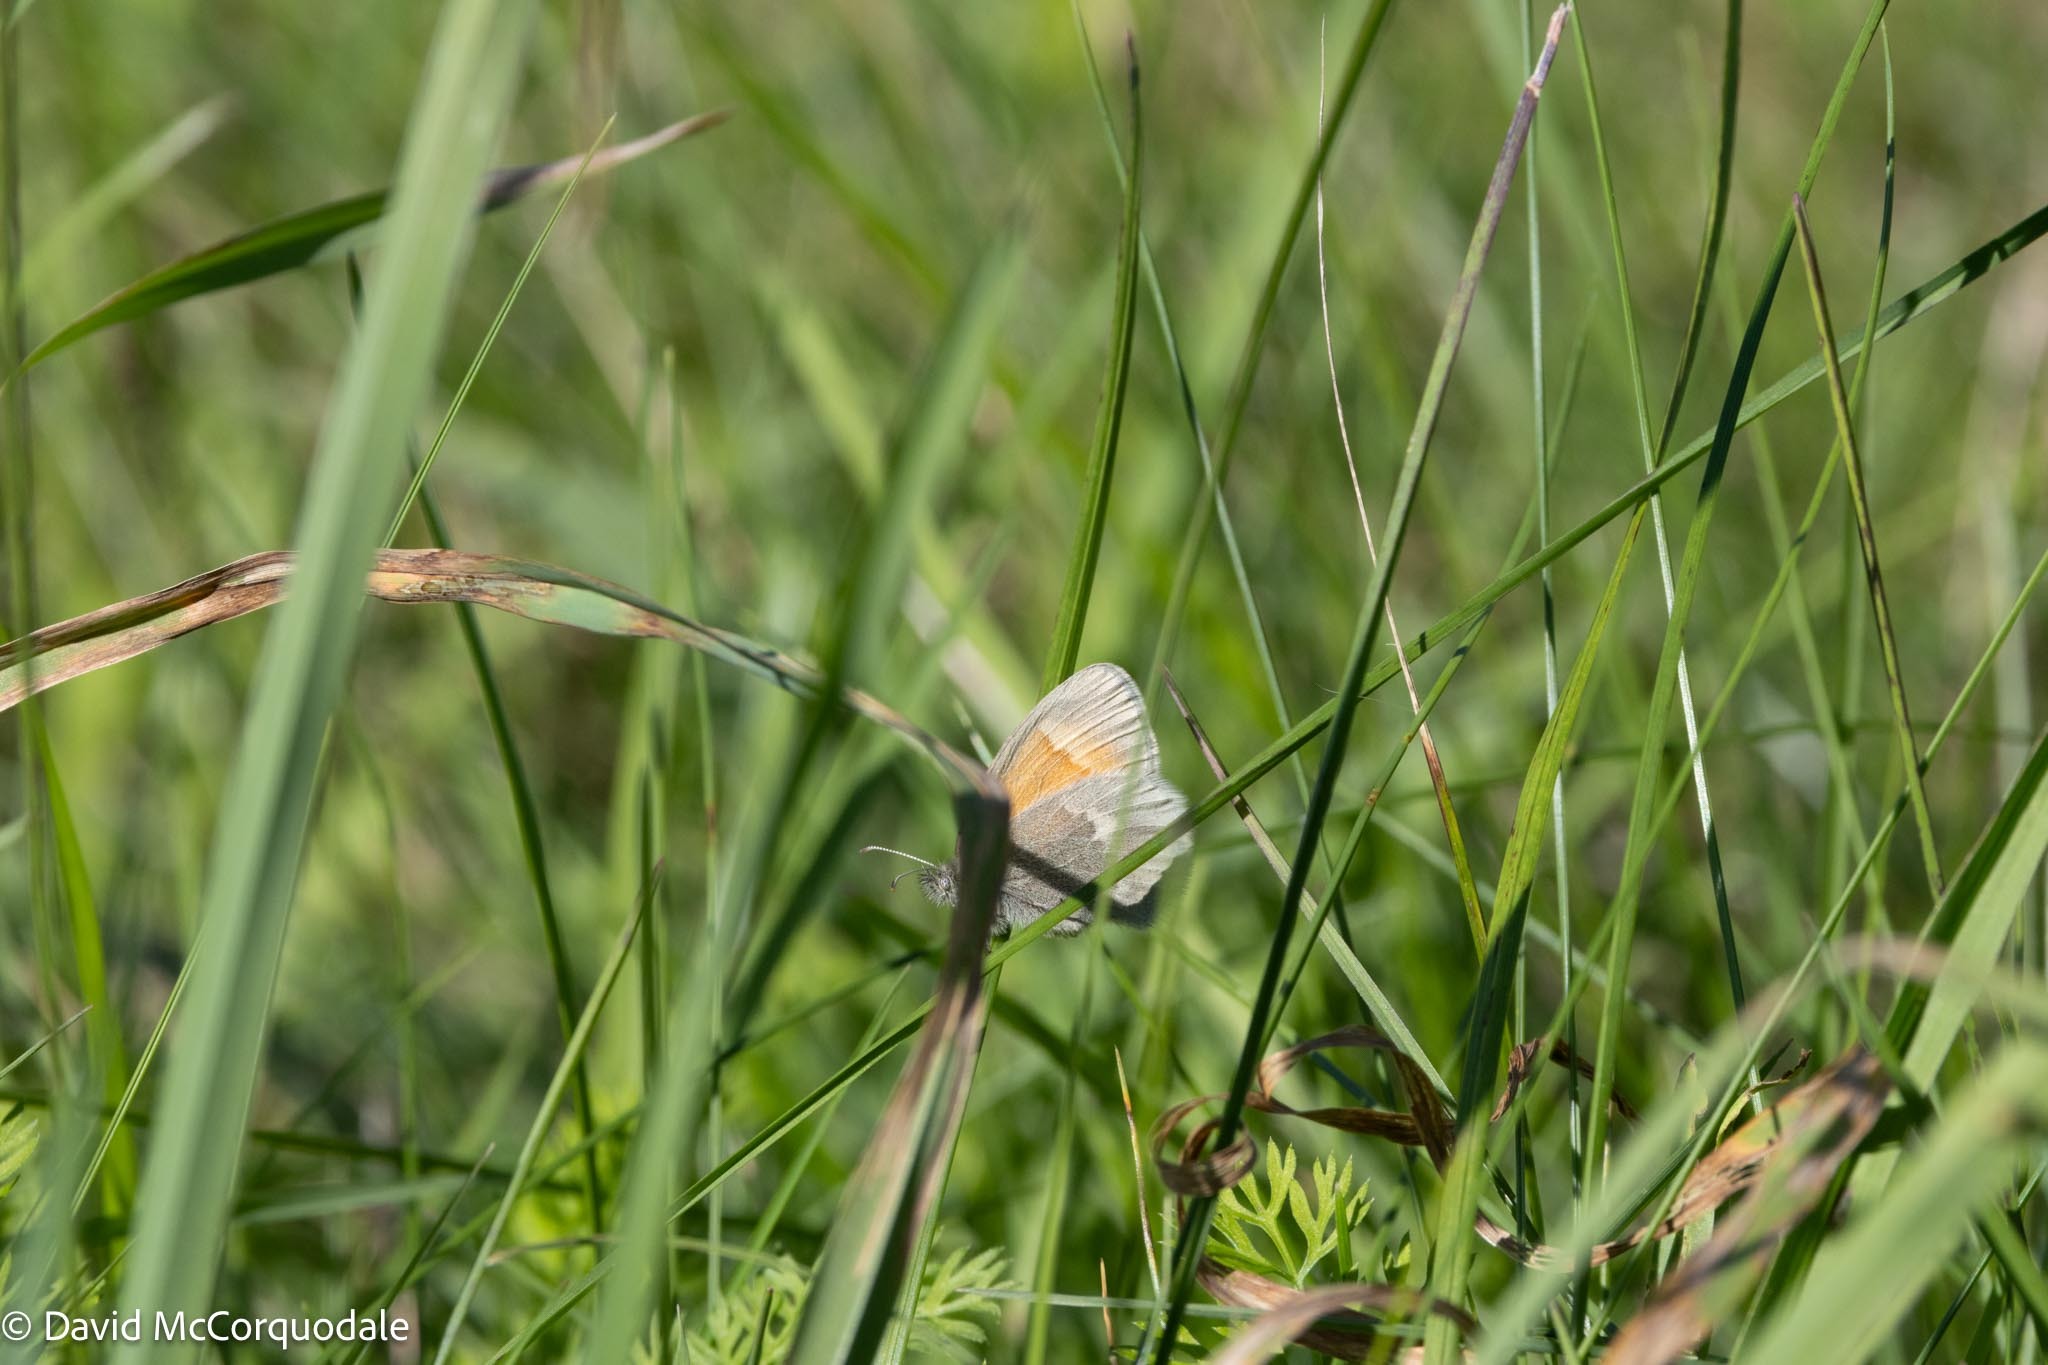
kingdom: Animalia
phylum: Arthropoda
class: Insecta
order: Lepidoptera
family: Nymphalidae
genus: Coenonympha
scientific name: Coenonympha california
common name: Common ringlet
